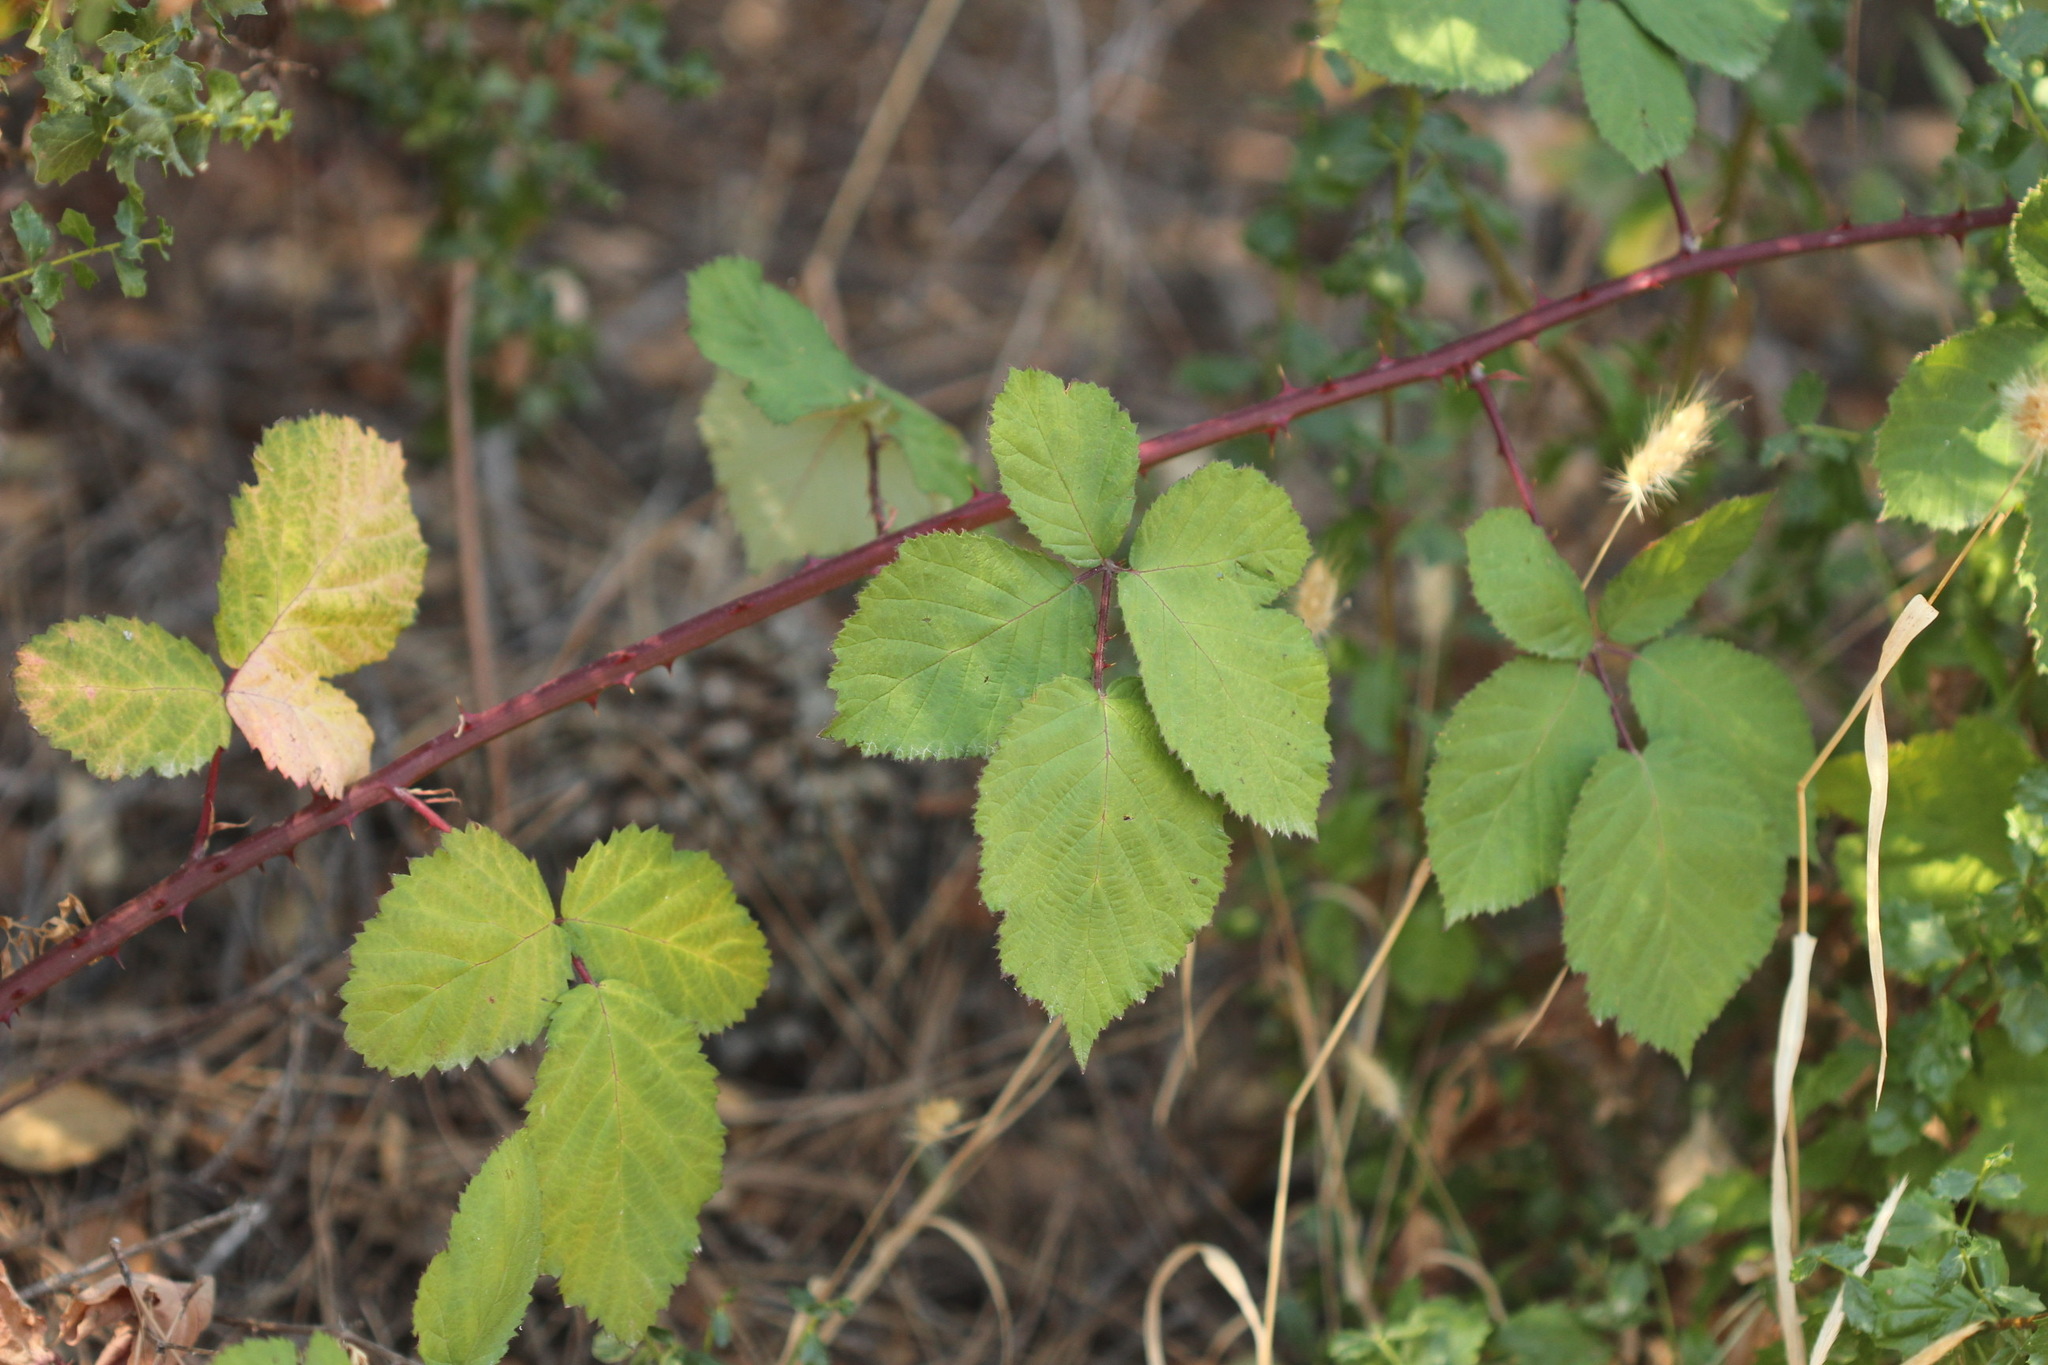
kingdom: Plantae
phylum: Tracheophyta
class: Magnoliopsida
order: Rosales
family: Rosaceae
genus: Rubus
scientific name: Rubus armeniacus
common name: Himalayan blackberry
